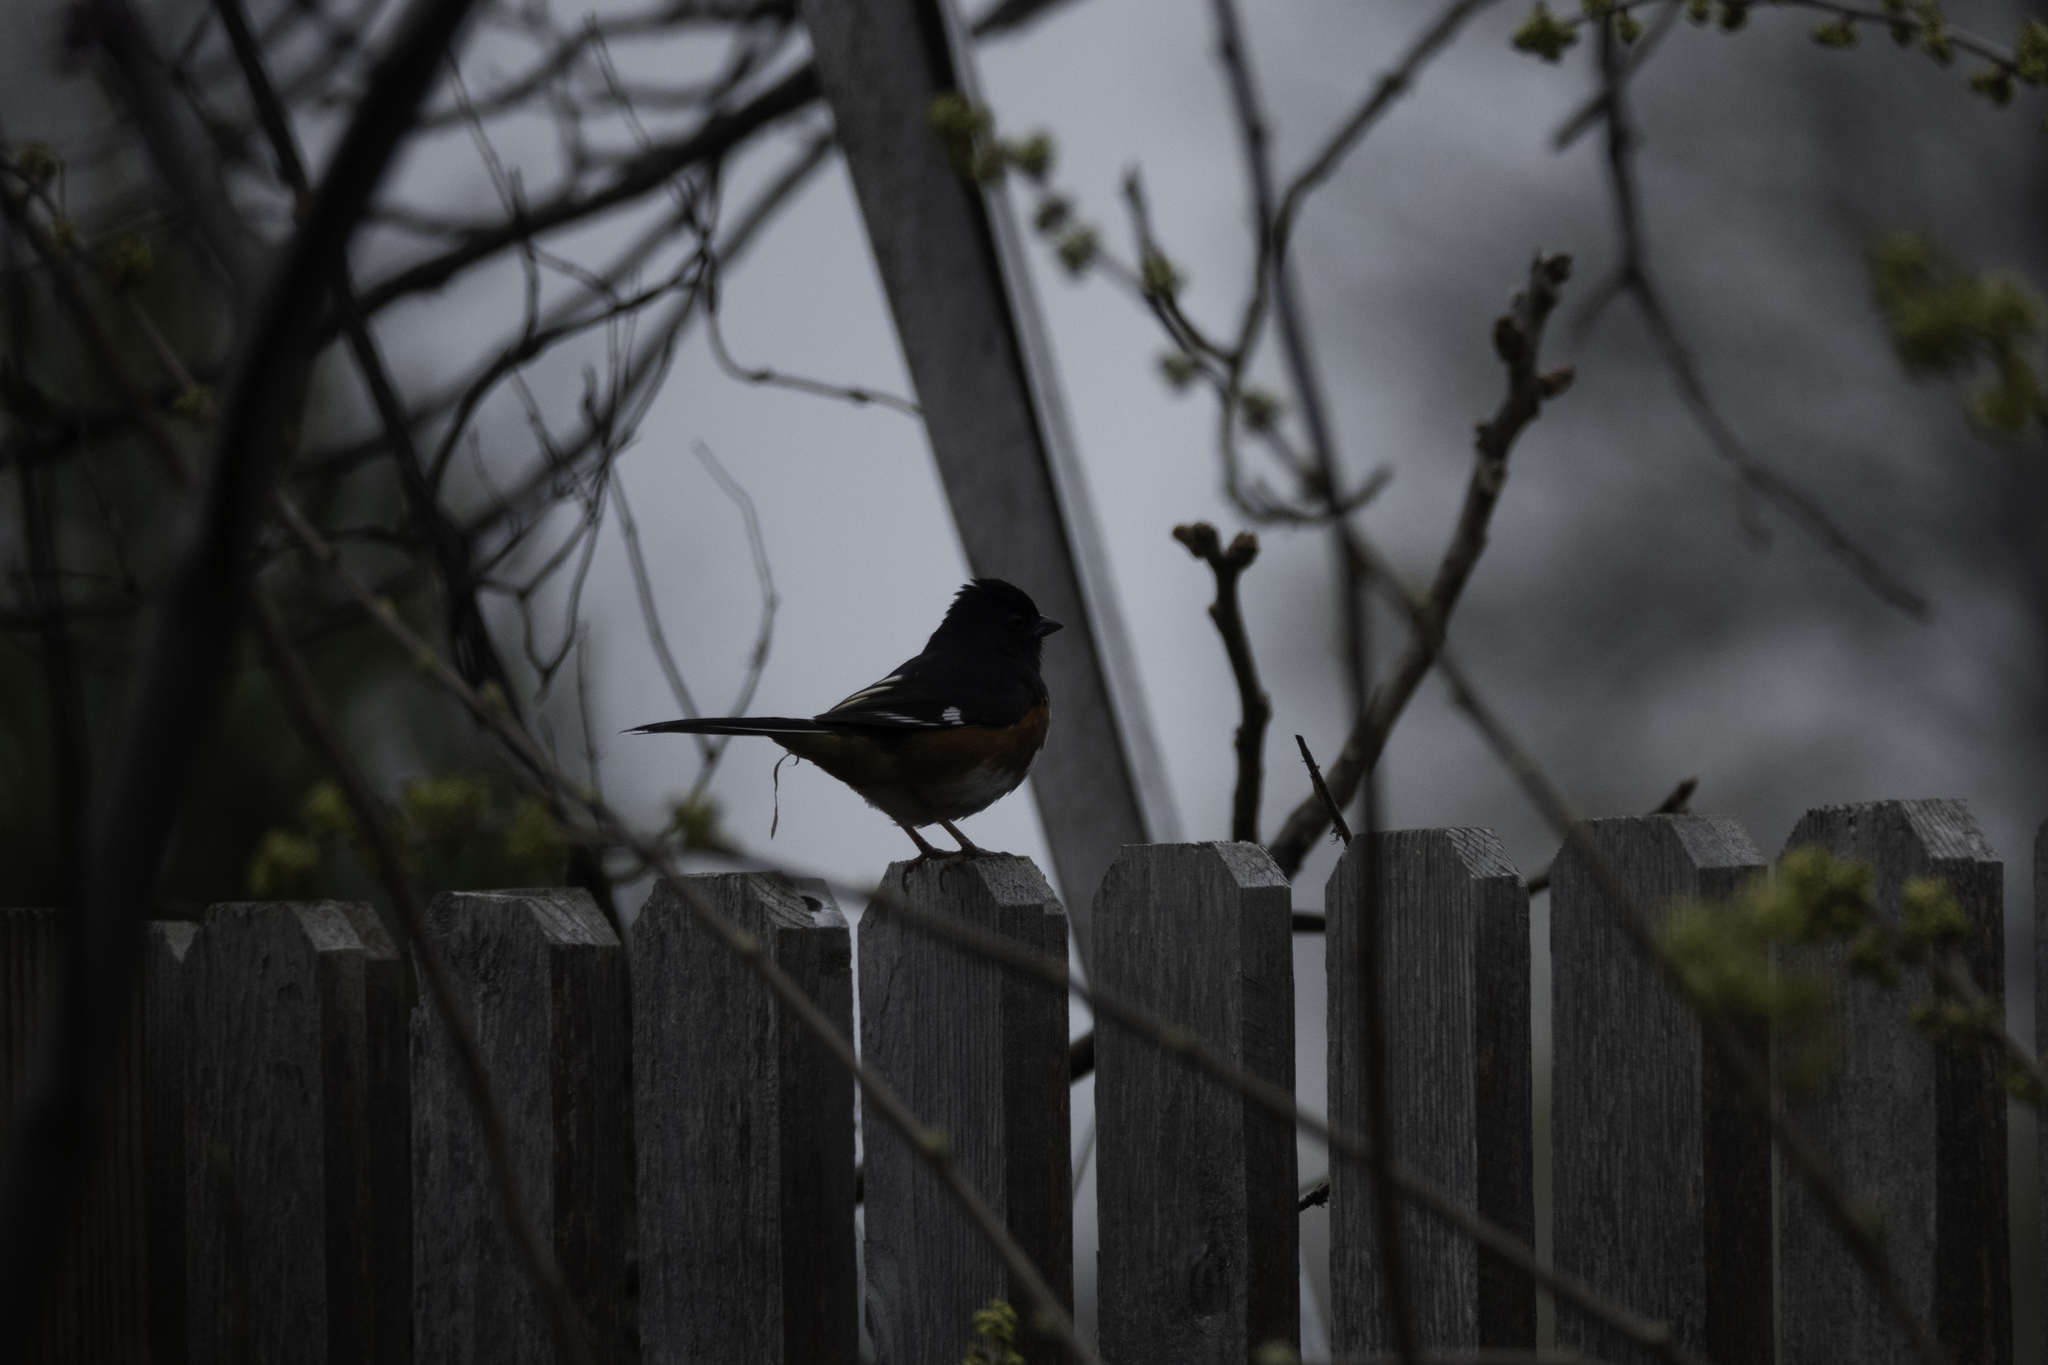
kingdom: Animalia
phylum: Chordata
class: Aves
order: Passeriformes
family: Passerellidae
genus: Pipilo
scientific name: Pipilo erythrophthalmus
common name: Eastern towhee
